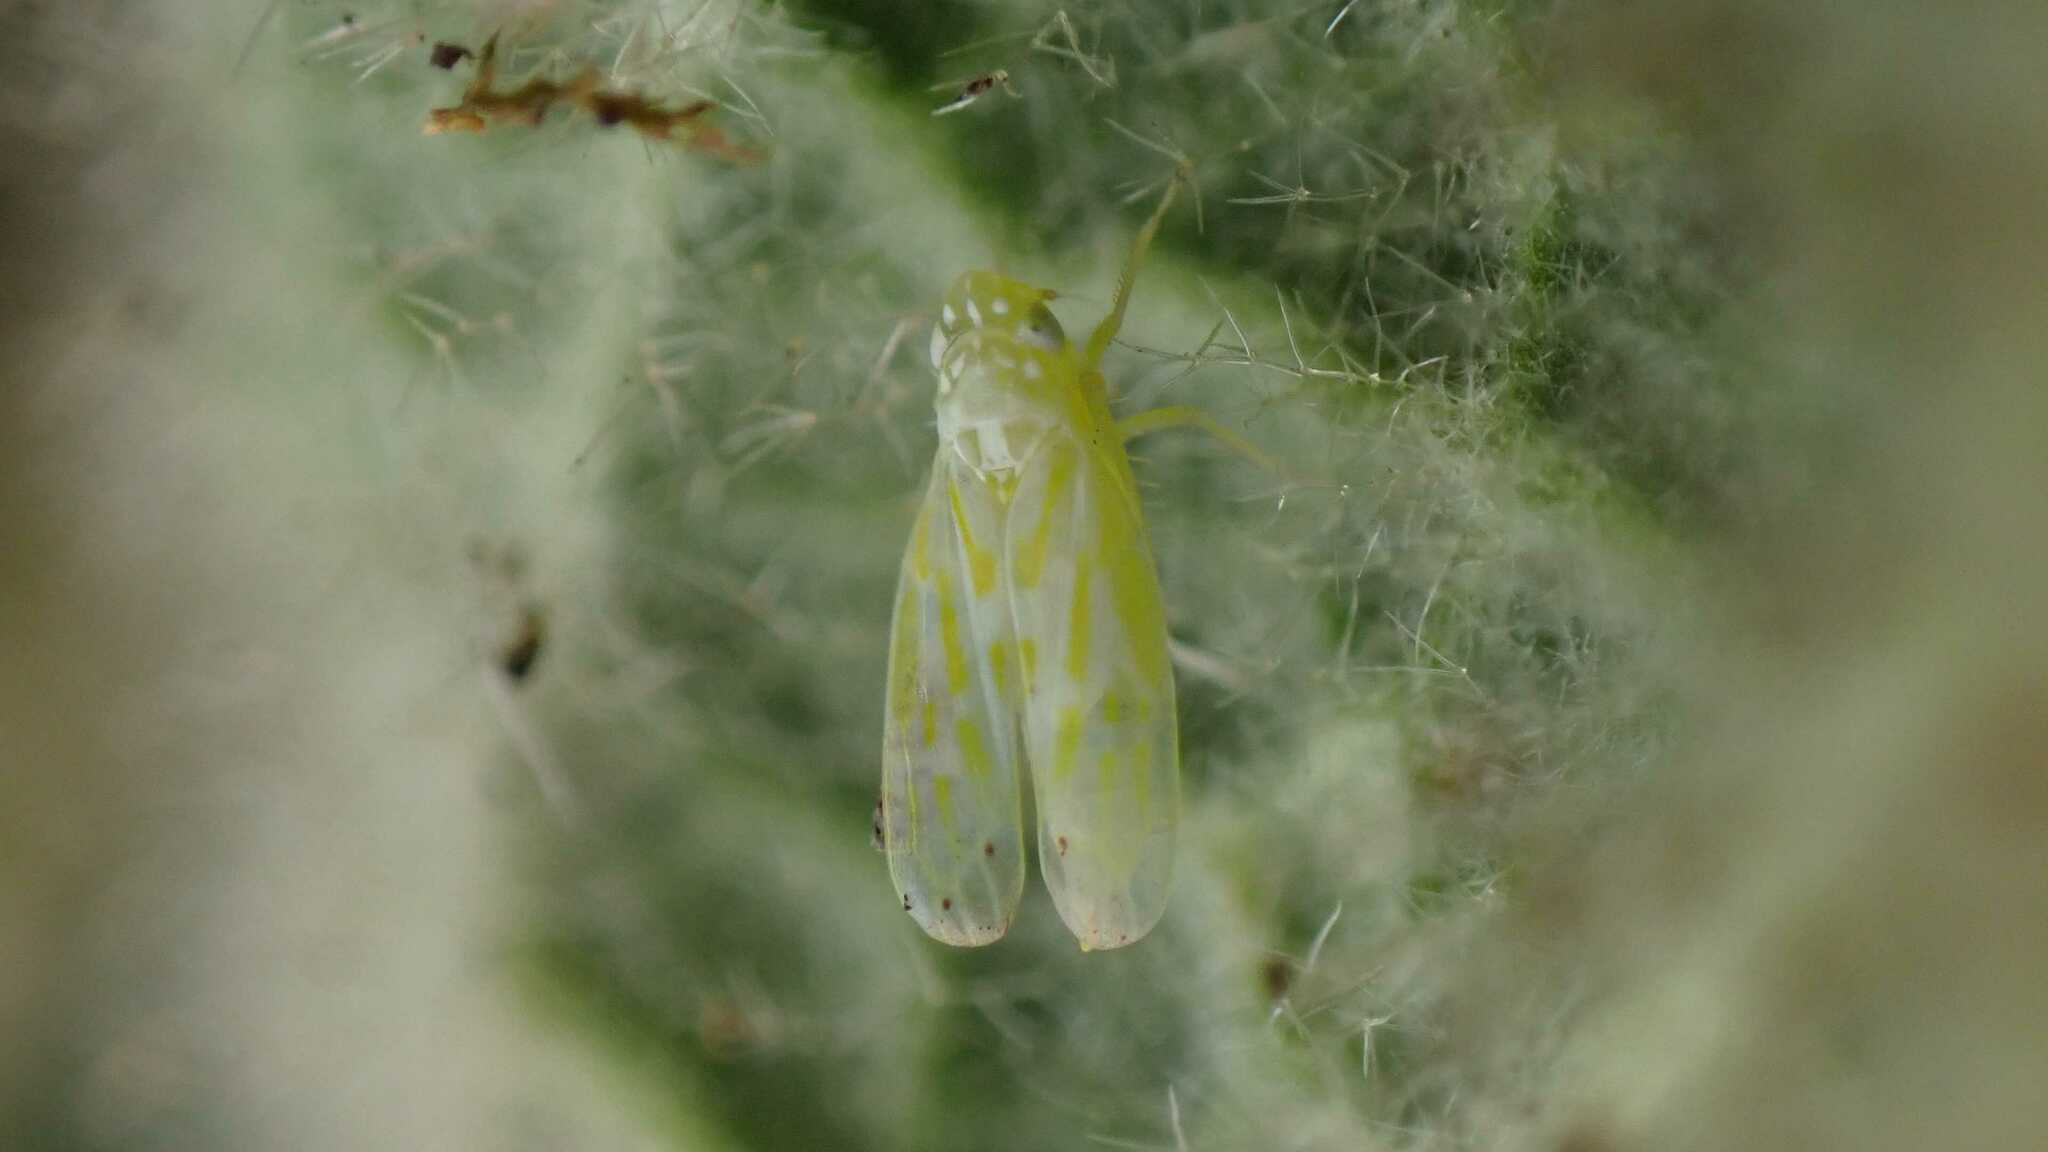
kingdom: Animalia
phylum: Arthropoda
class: Insecta
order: Hemiptera
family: Cicadellidae
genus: Micantulina
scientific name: Micantulina stigmatipennis
